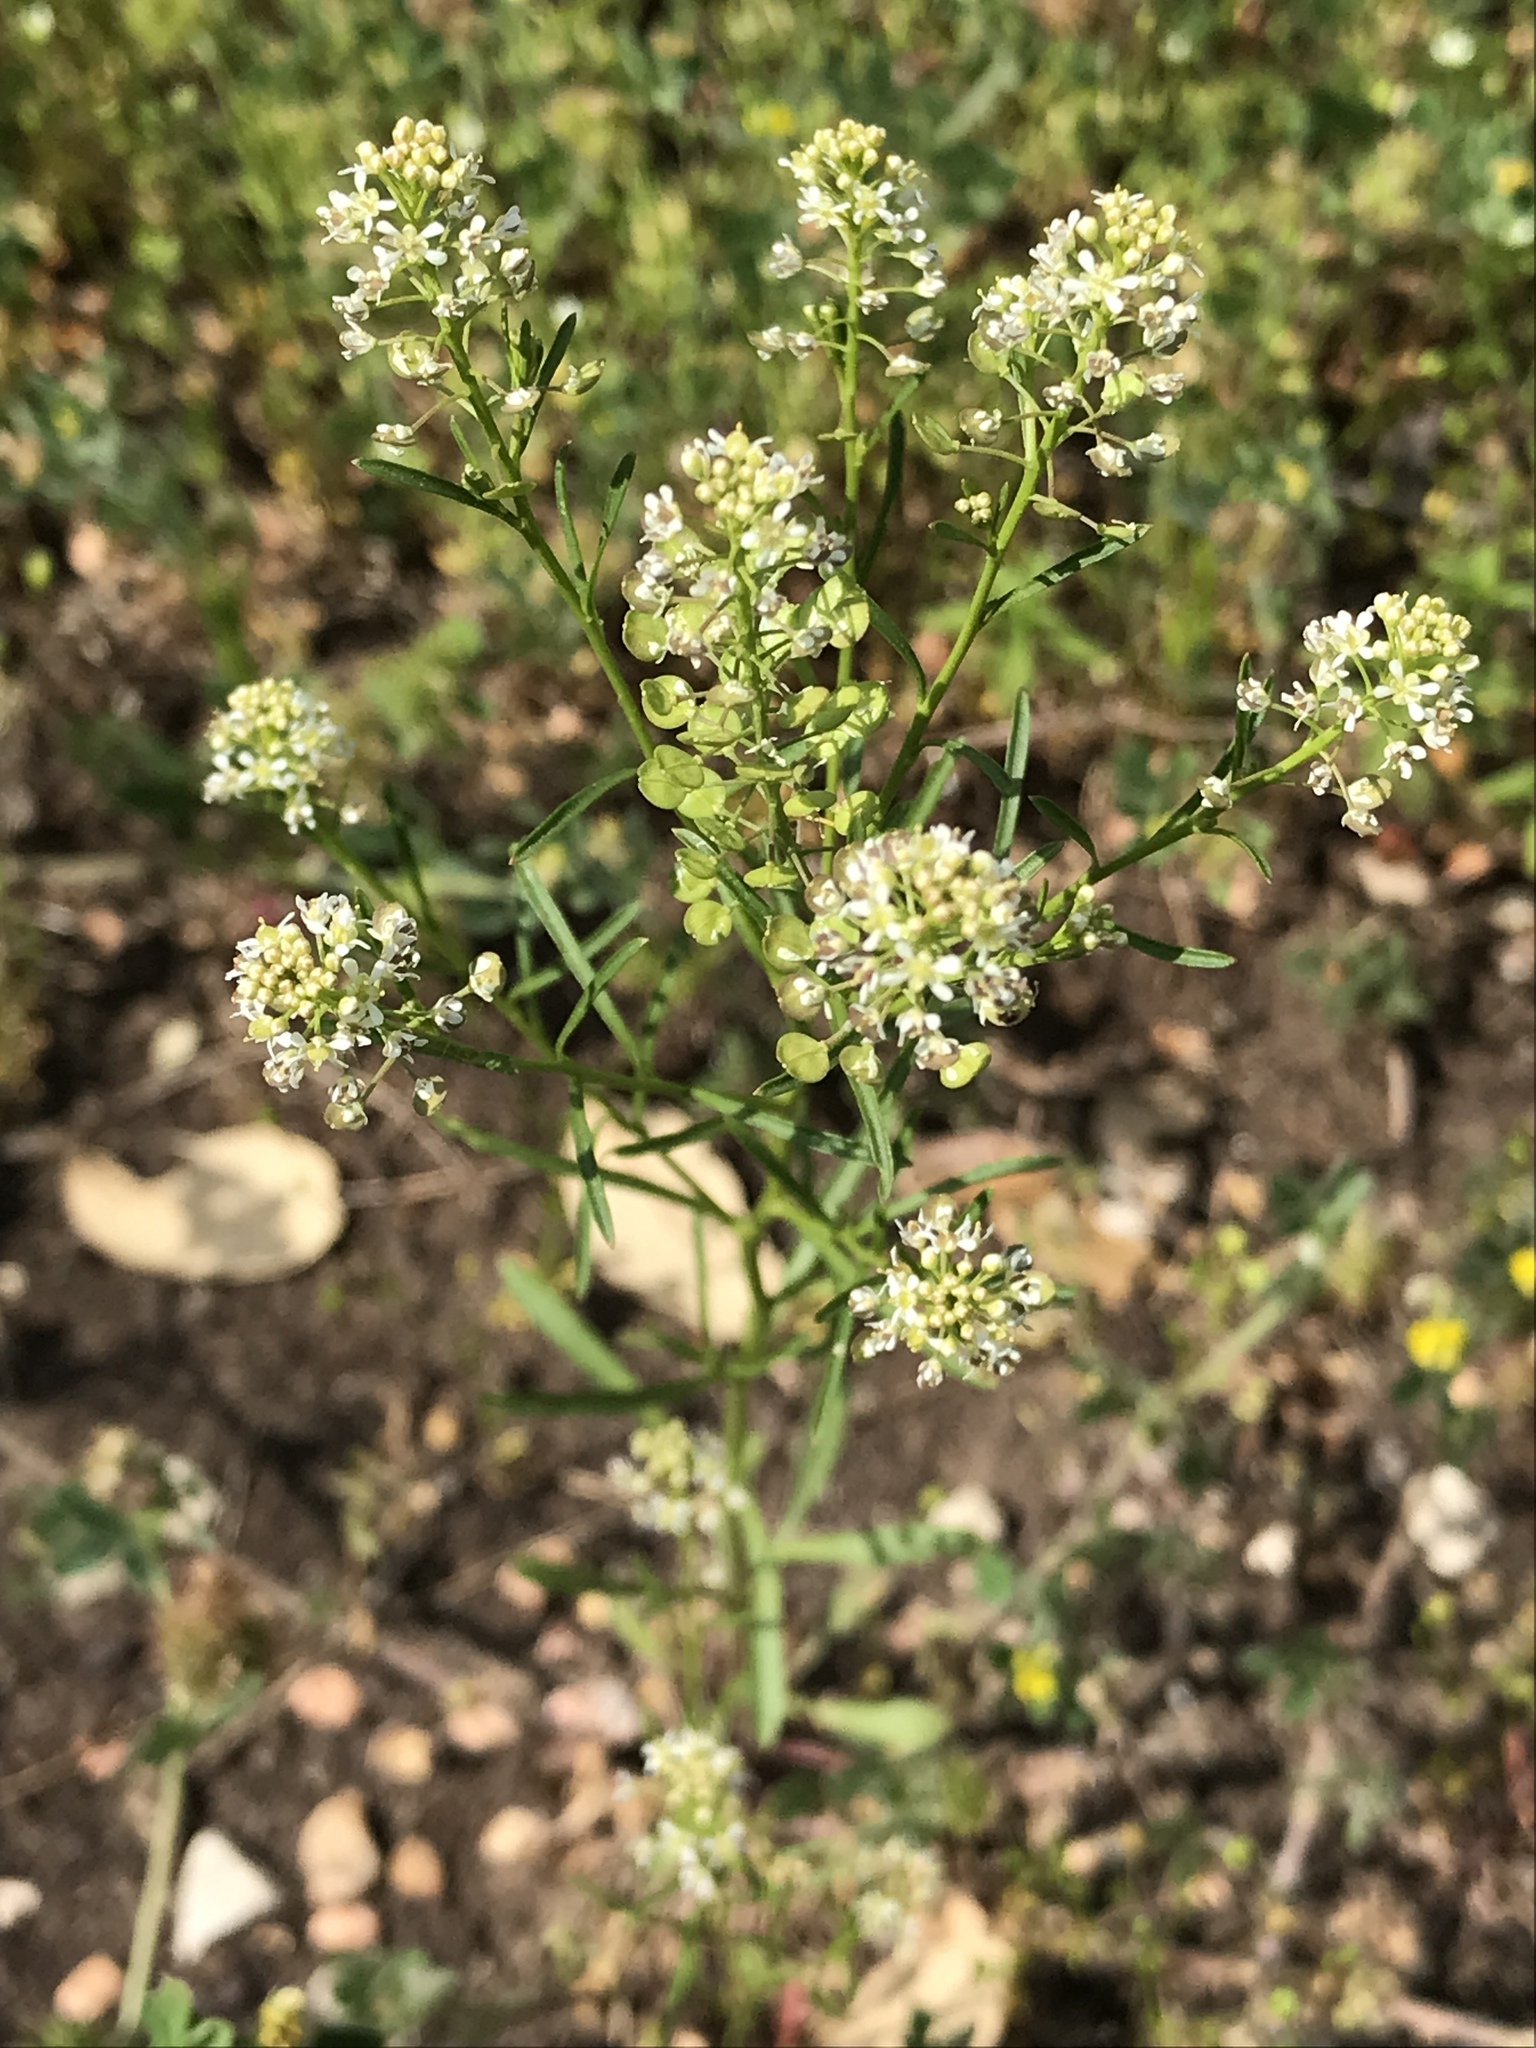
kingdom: Plantae
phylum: Tracheophyta
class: Magnoliopsida
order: Brassicales
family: Brassicaceae
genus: Lepidium
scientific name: Lepidium virginicum
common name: Least pepperwort
